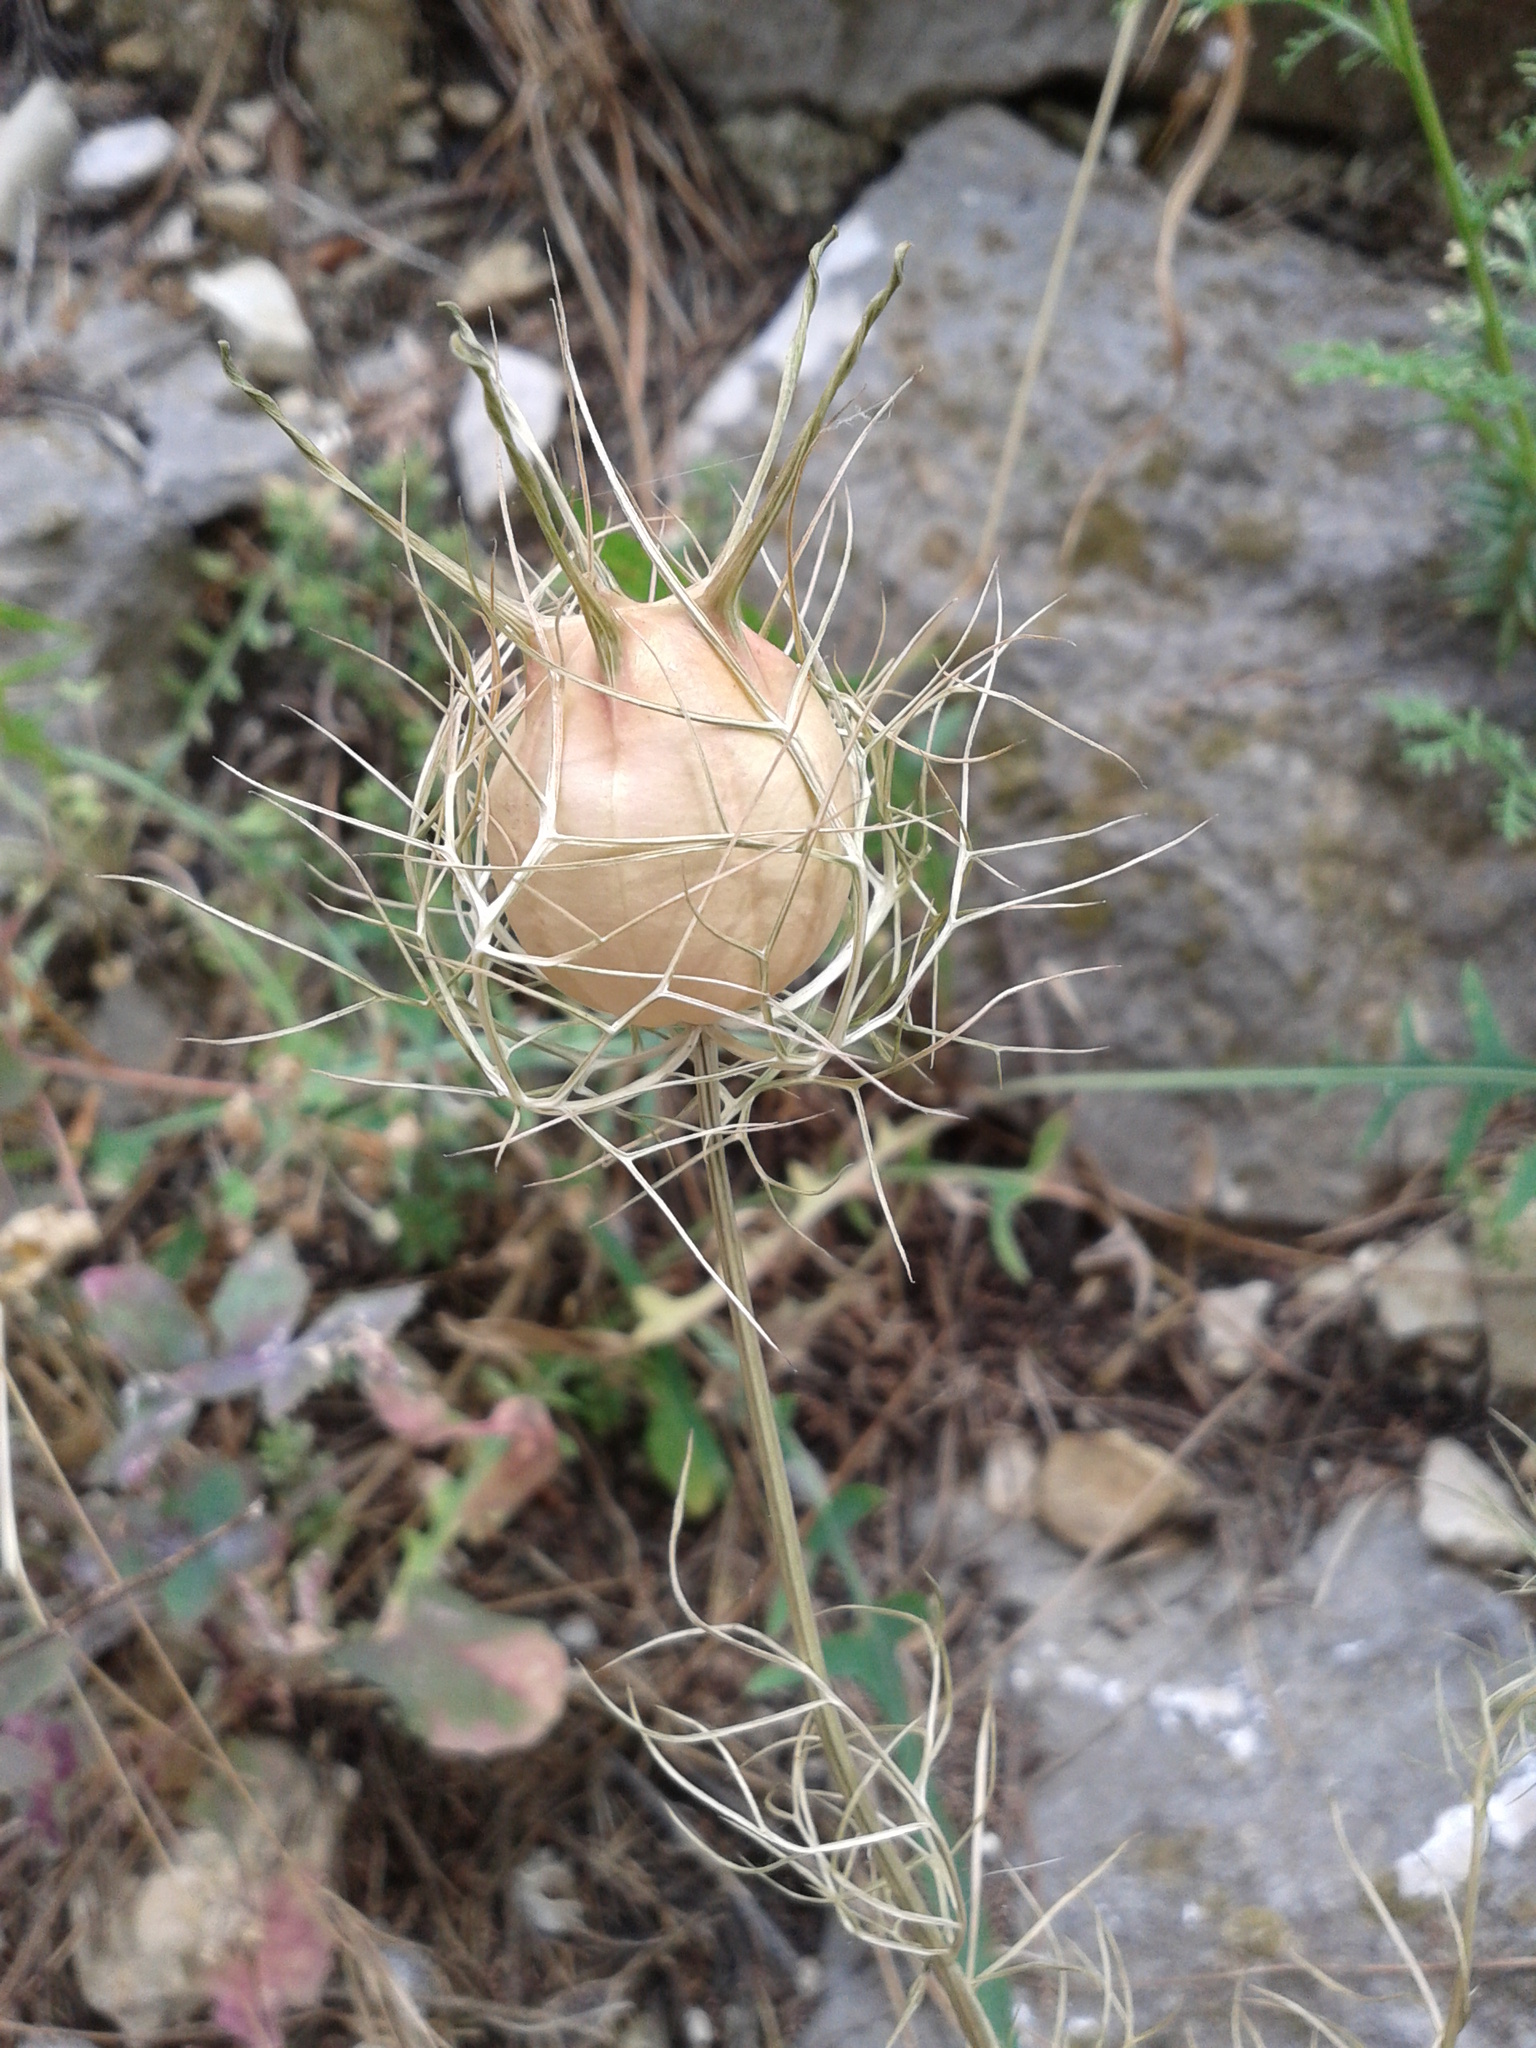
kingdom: Plantae
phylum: Tracheophyta
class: Magnoliopsida
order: Ranunculales
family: Ranunculaceae
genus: Nigella
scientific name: Nigella damascena
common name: Love-in-a-mist
